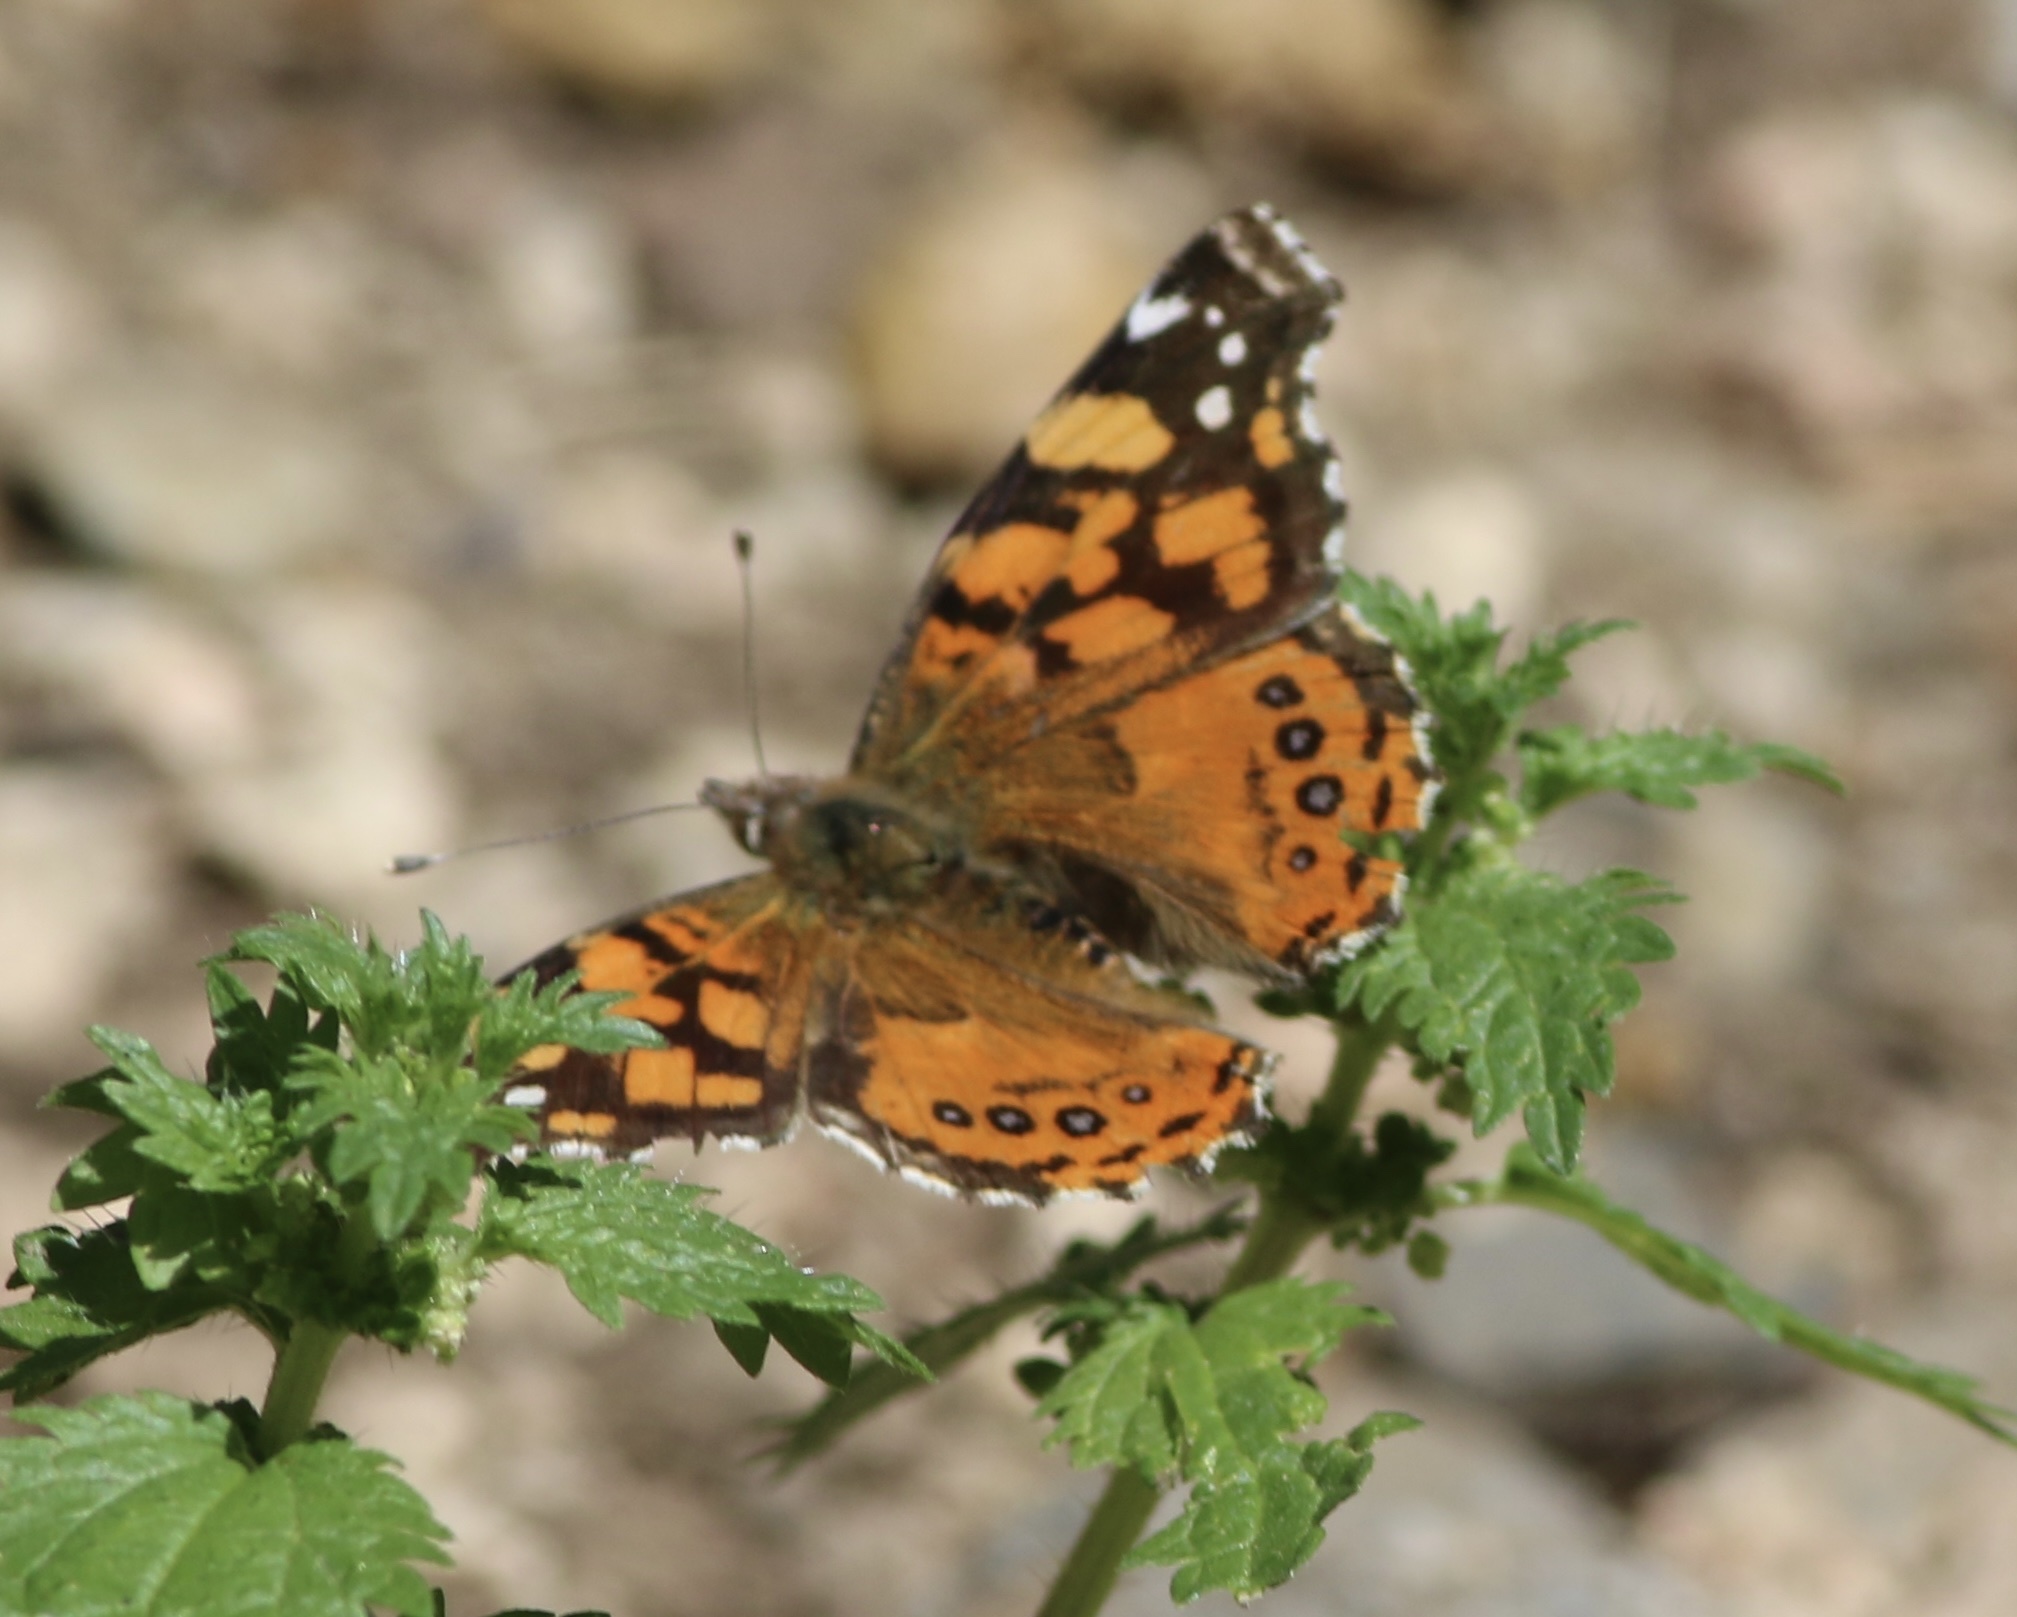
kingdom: Animalia
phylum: Arthropoda
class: Insecta
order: Lepidoptera
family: Nymphalidae
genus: Vanessa
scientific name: Vanessa annabella
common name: West coast lady
